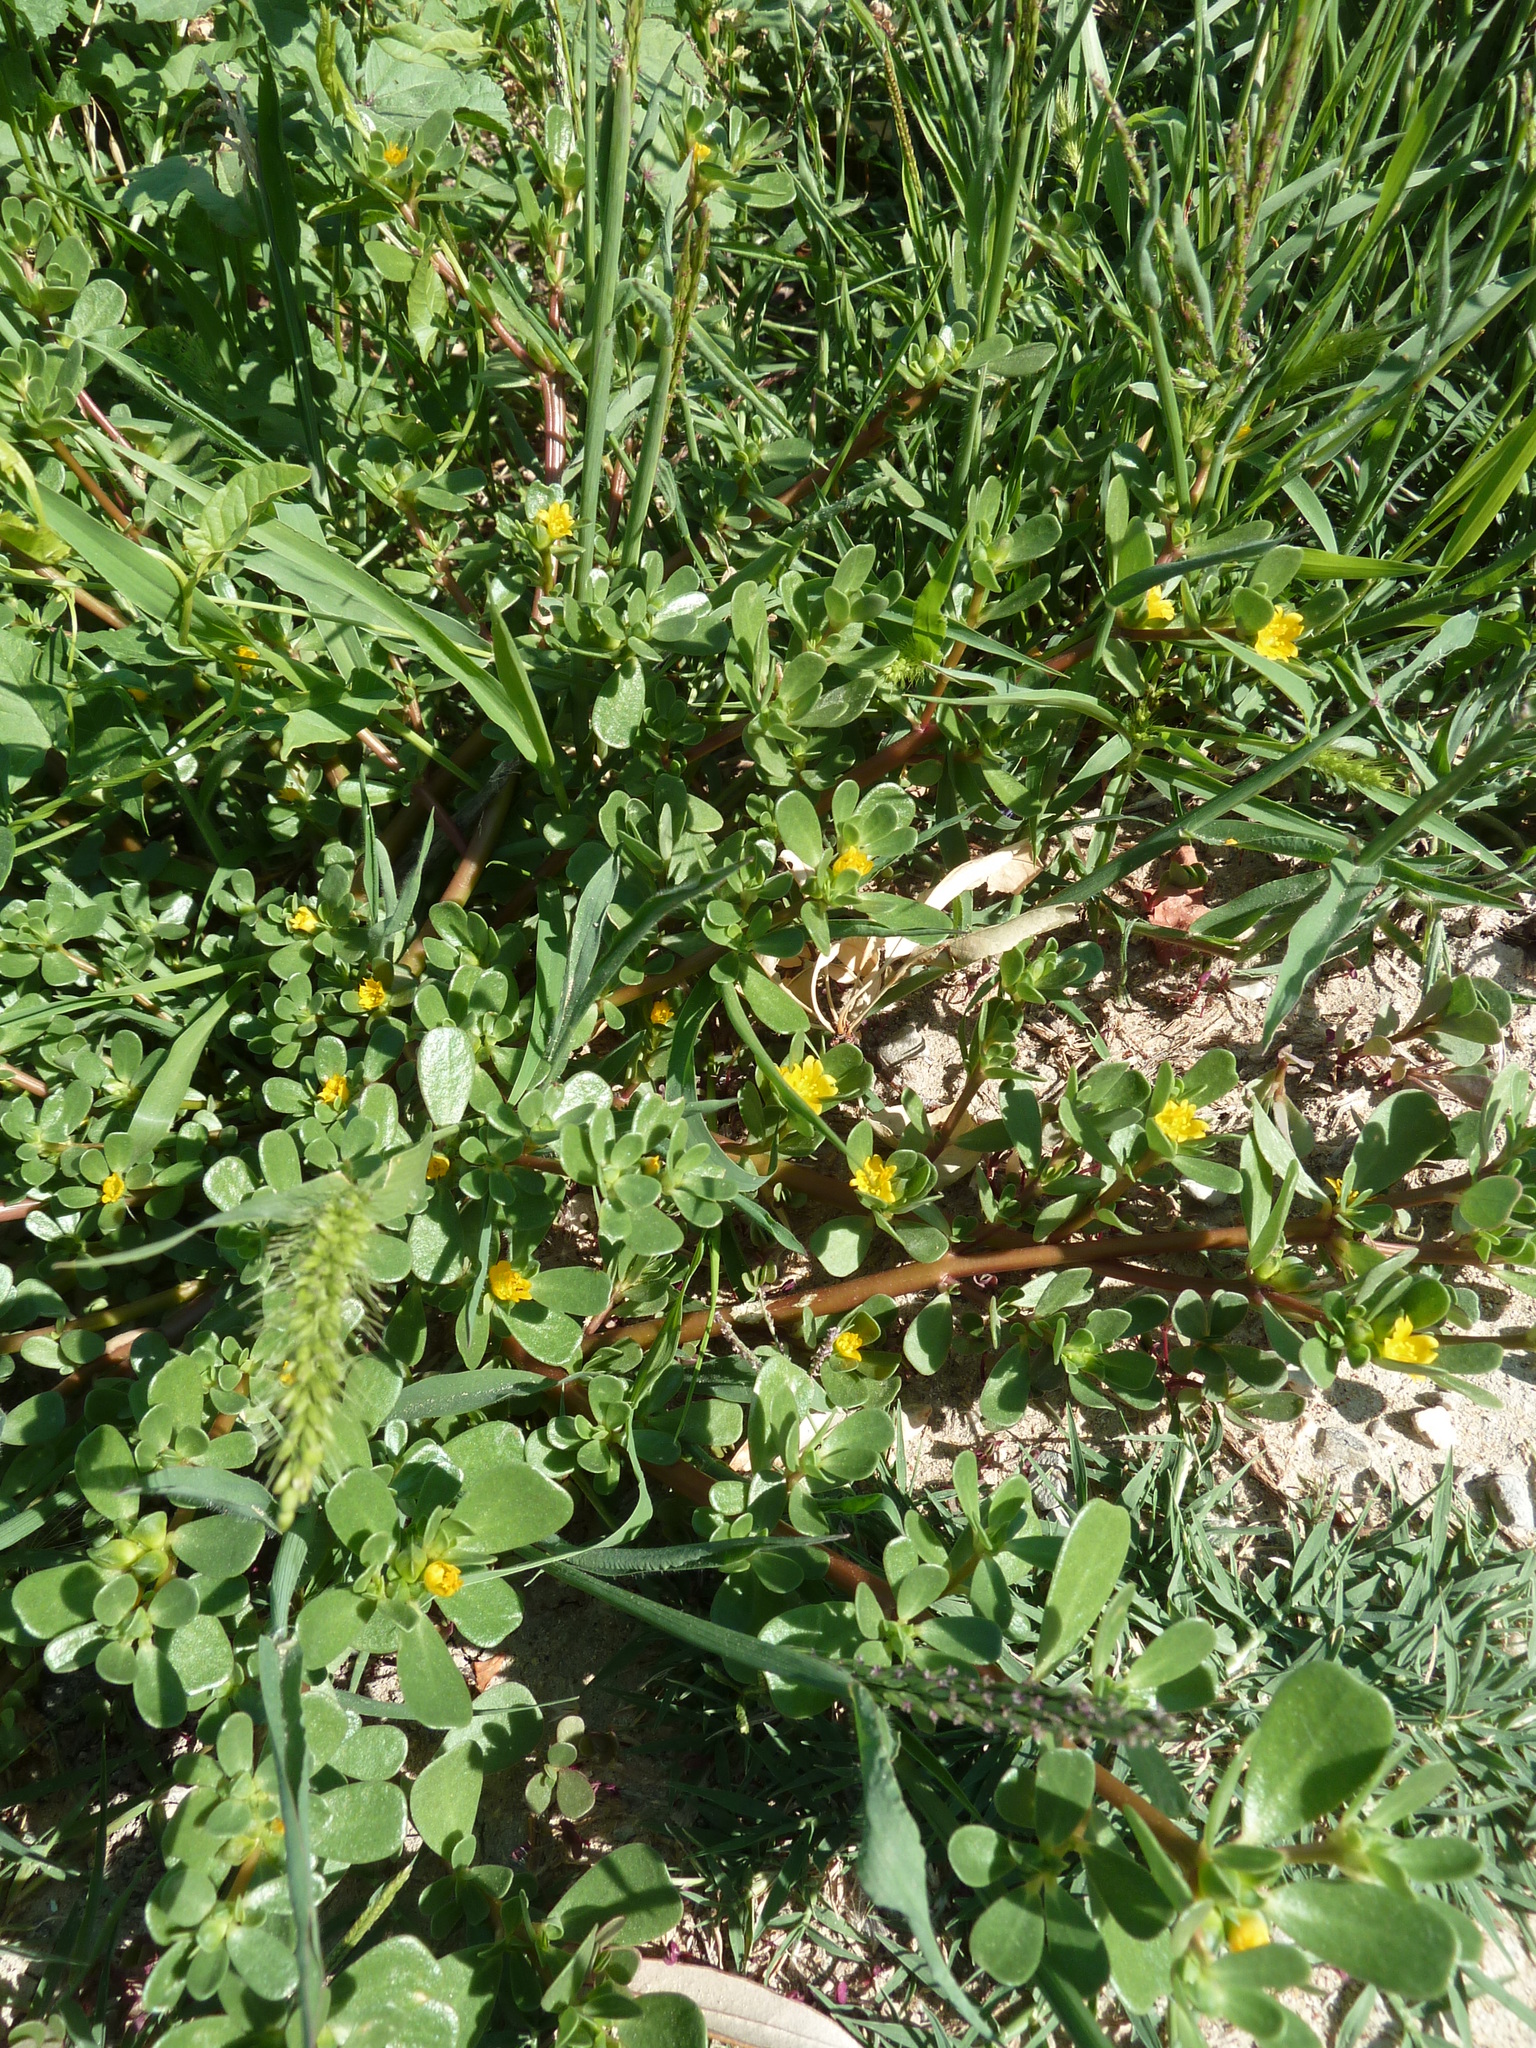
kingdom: Plantae
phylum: Tracheophyta
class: Magnoliopsida
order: Caryophyllales
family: Portulacaceae
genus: Portulaca
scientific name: Portulaca oleracea
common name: Common purslane
